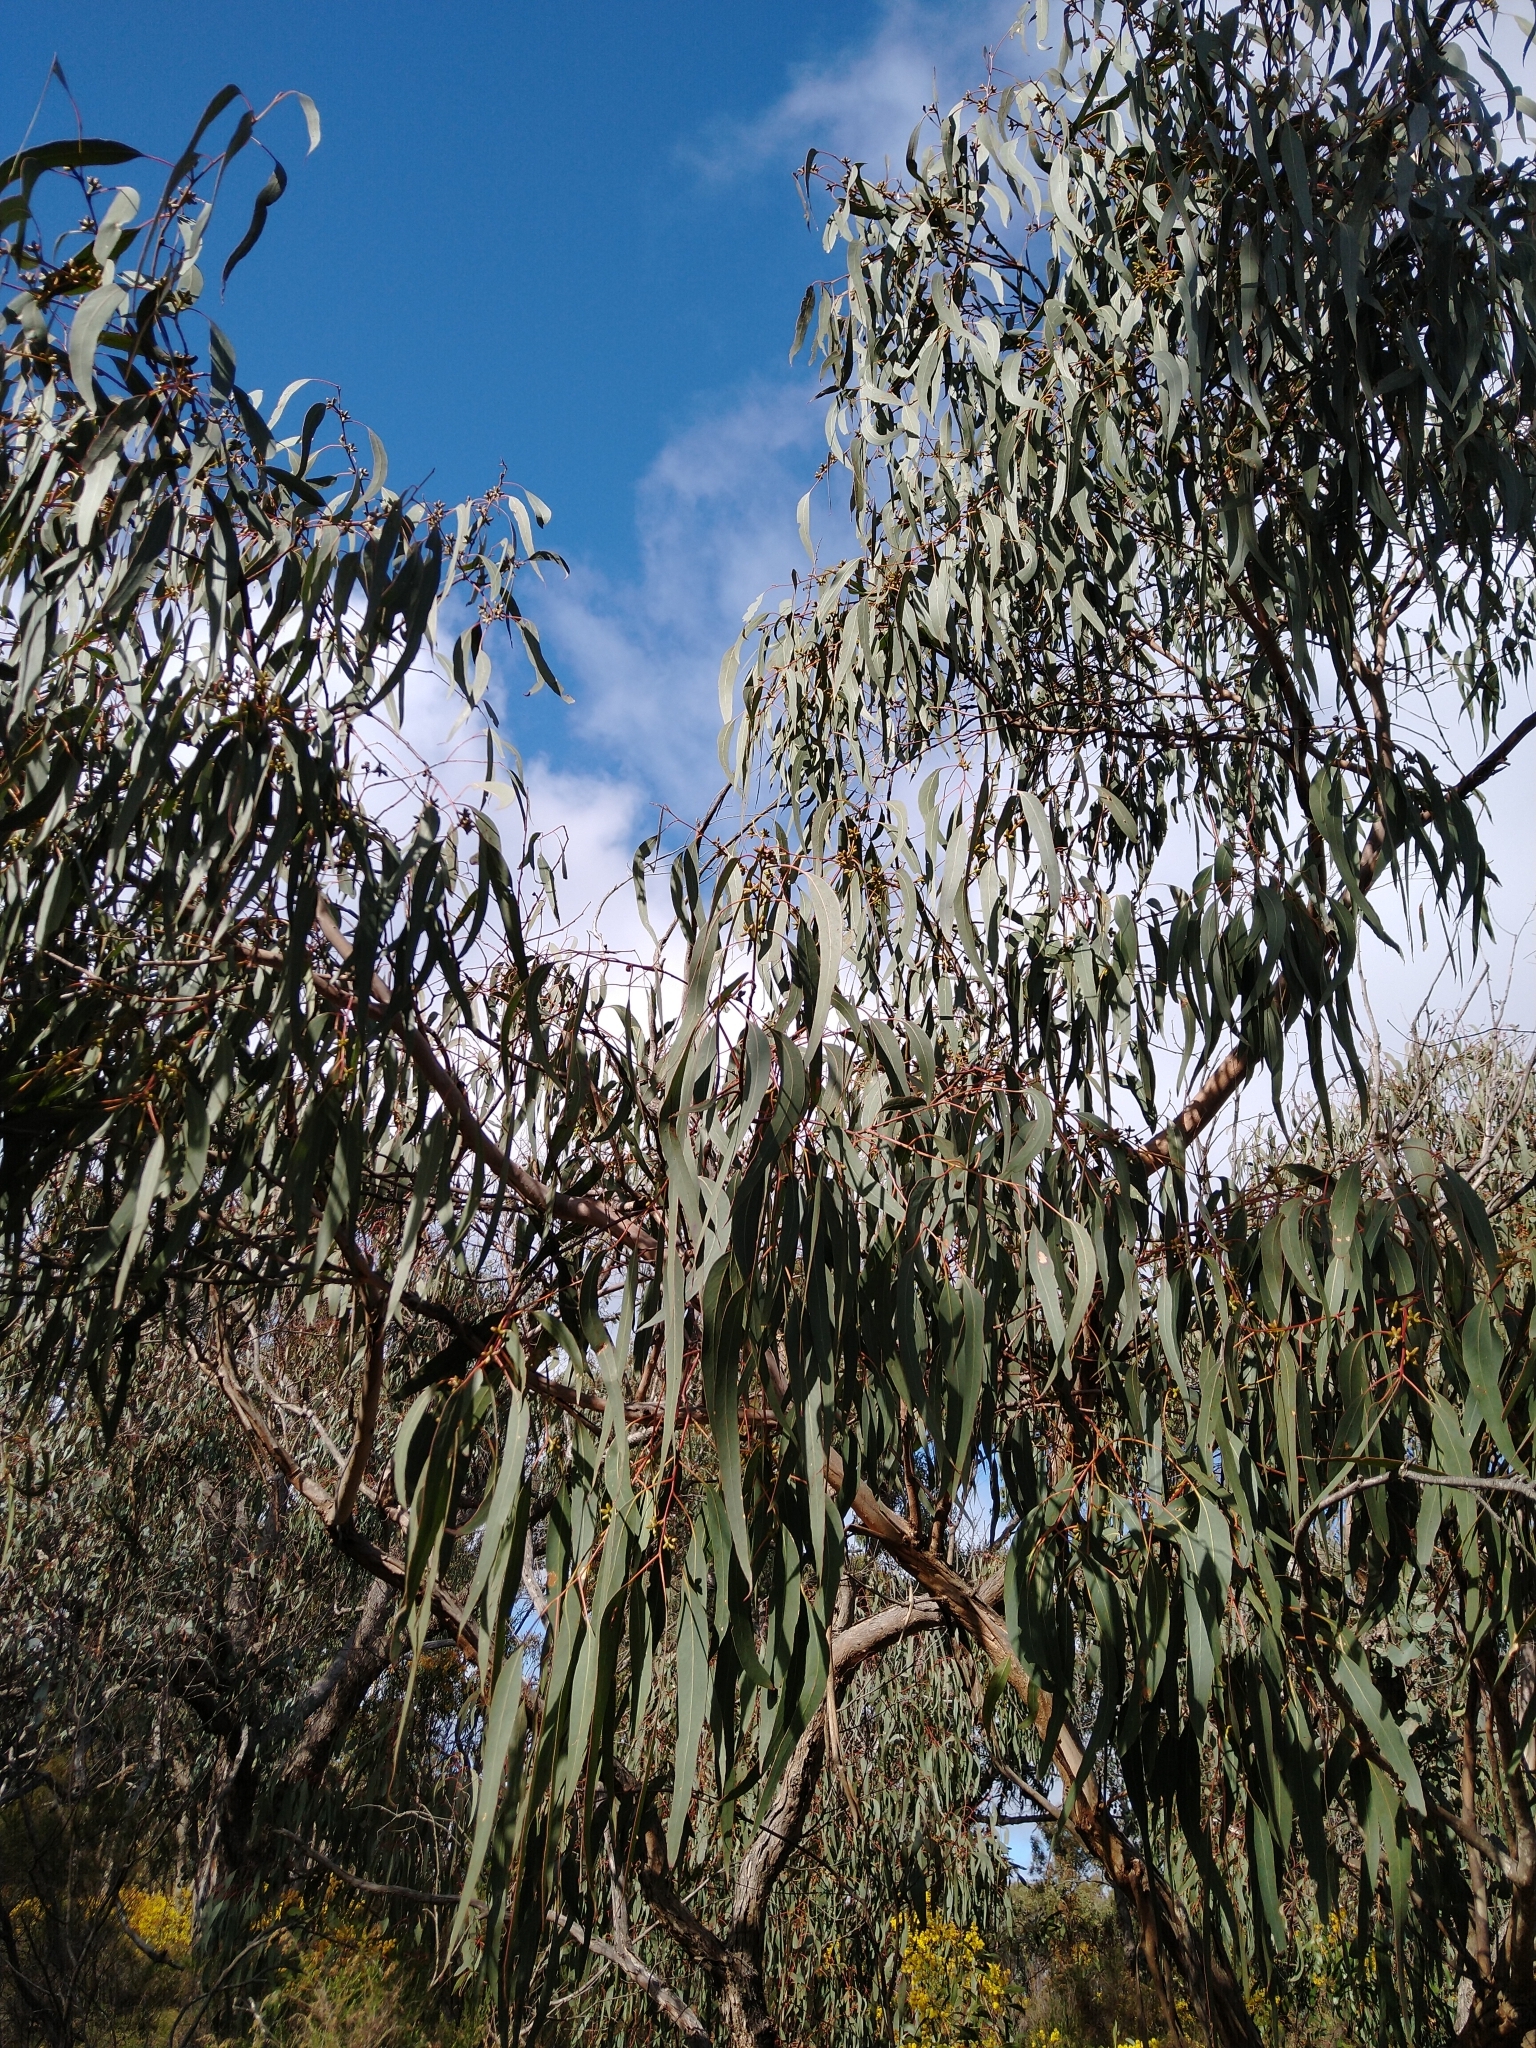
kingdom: Plantae
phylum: Tracheophyta
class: Magnoliopsida
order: Myrtales
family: Myrtaceae
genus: Eucalyptus
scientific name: Eucalyptus nortonii
